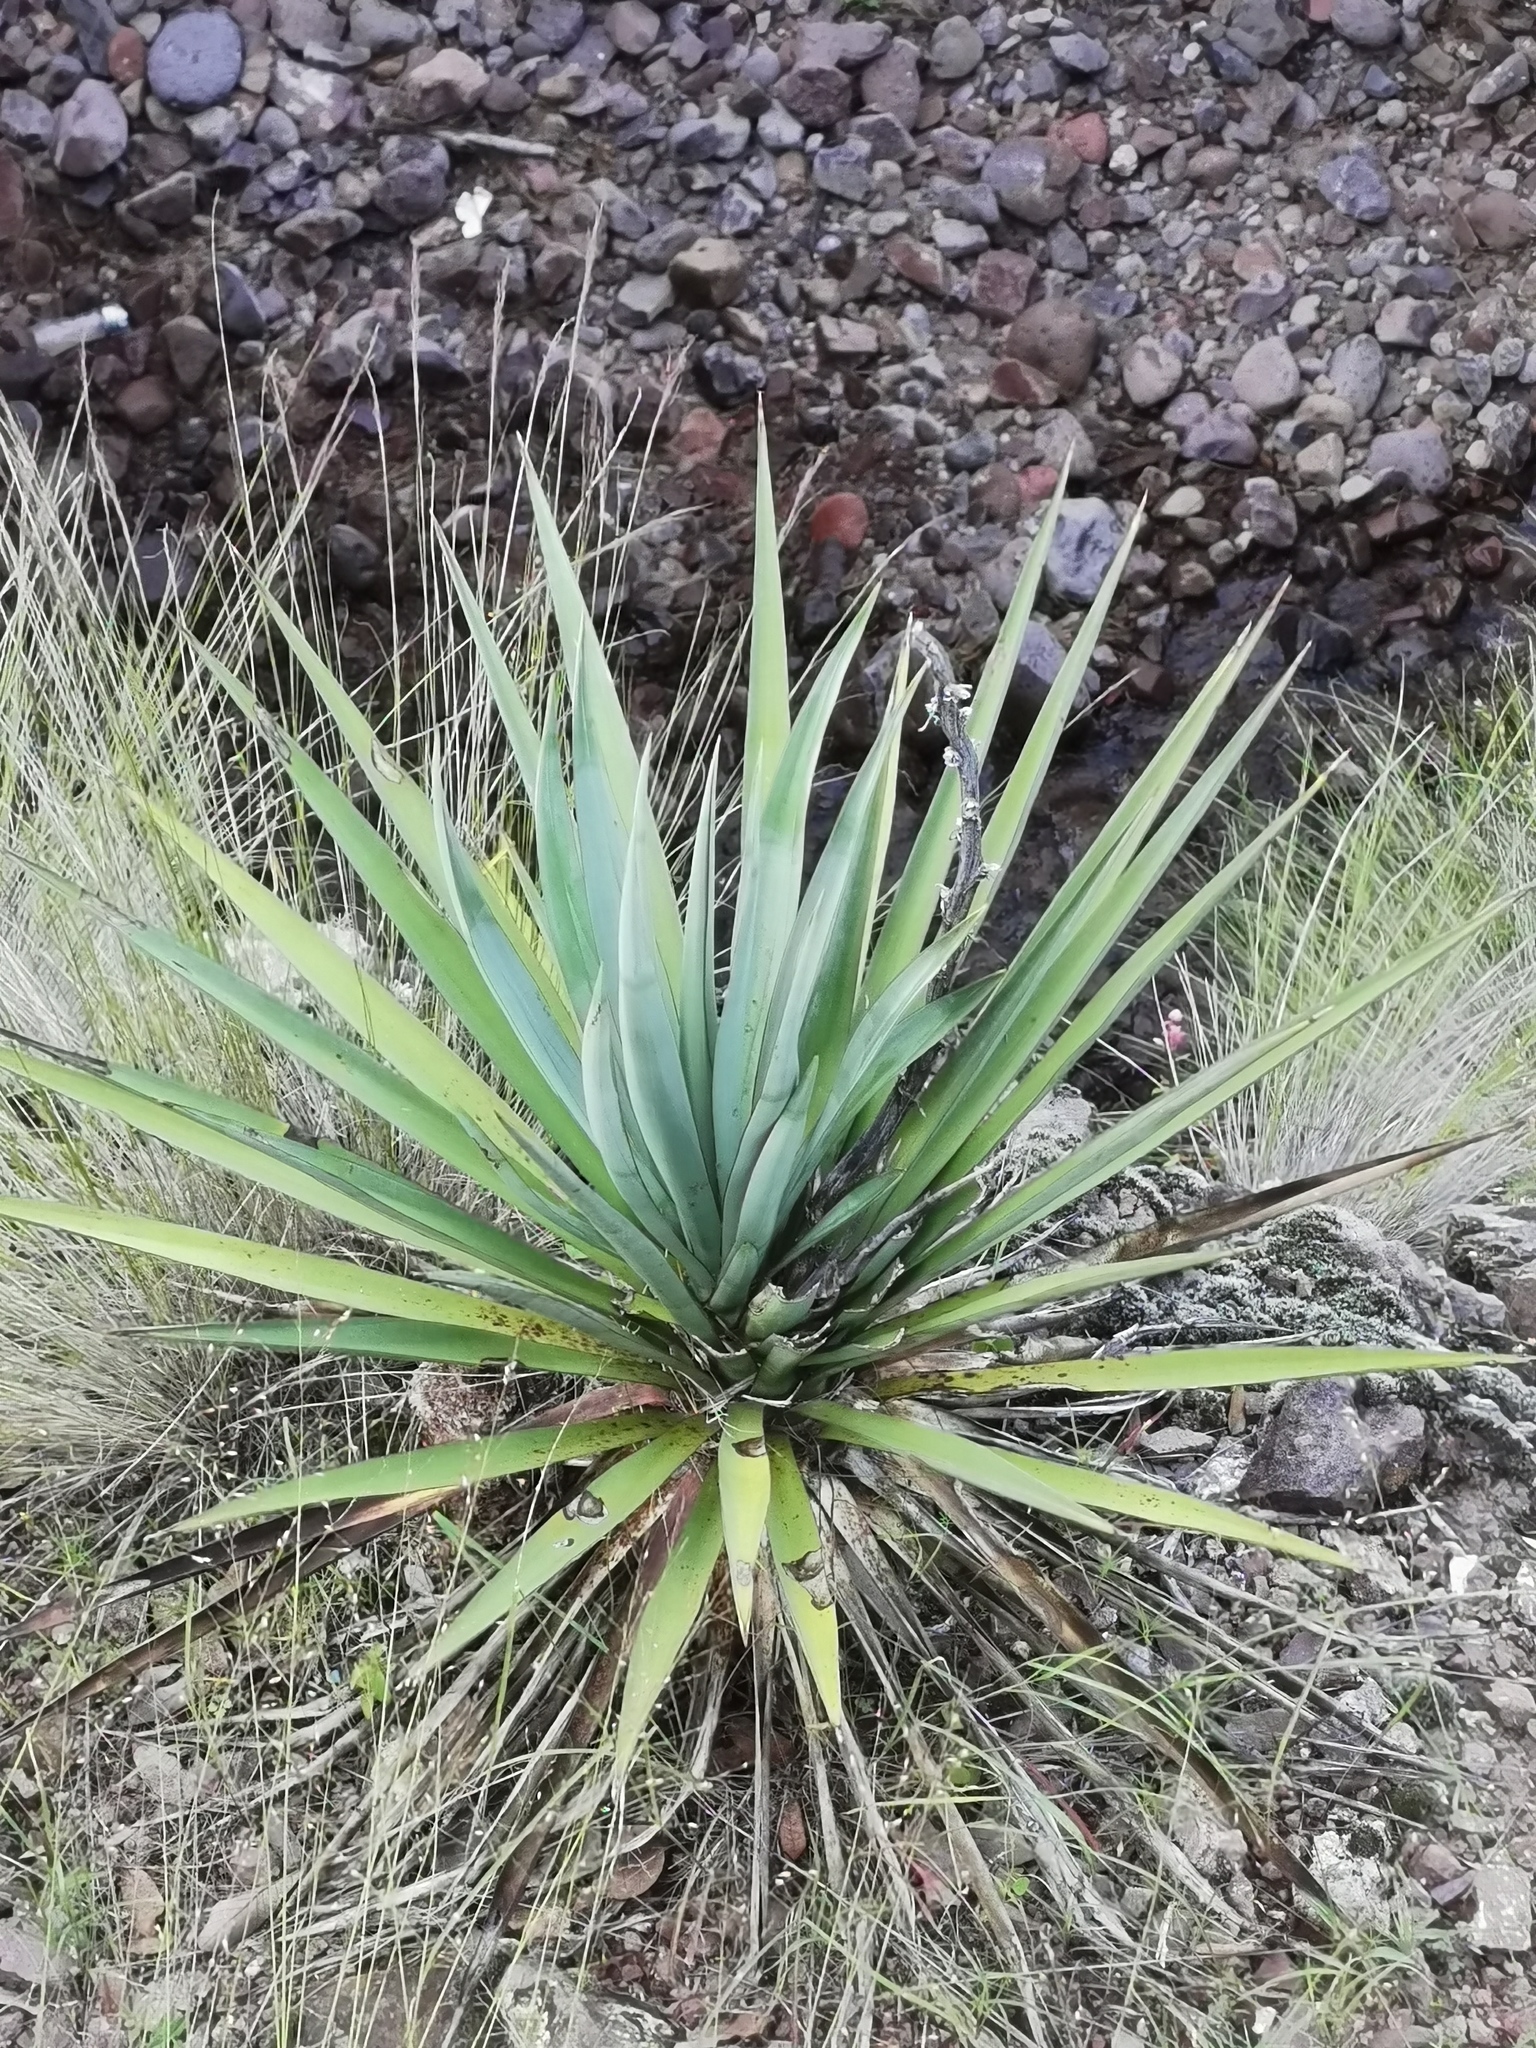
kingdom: Plantae
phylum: Tracheophyta
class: Liliopsida
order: Asparagales
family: Asparagaceae
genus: Yucca
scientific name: Yucca madrensis
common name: Hoary yucca
